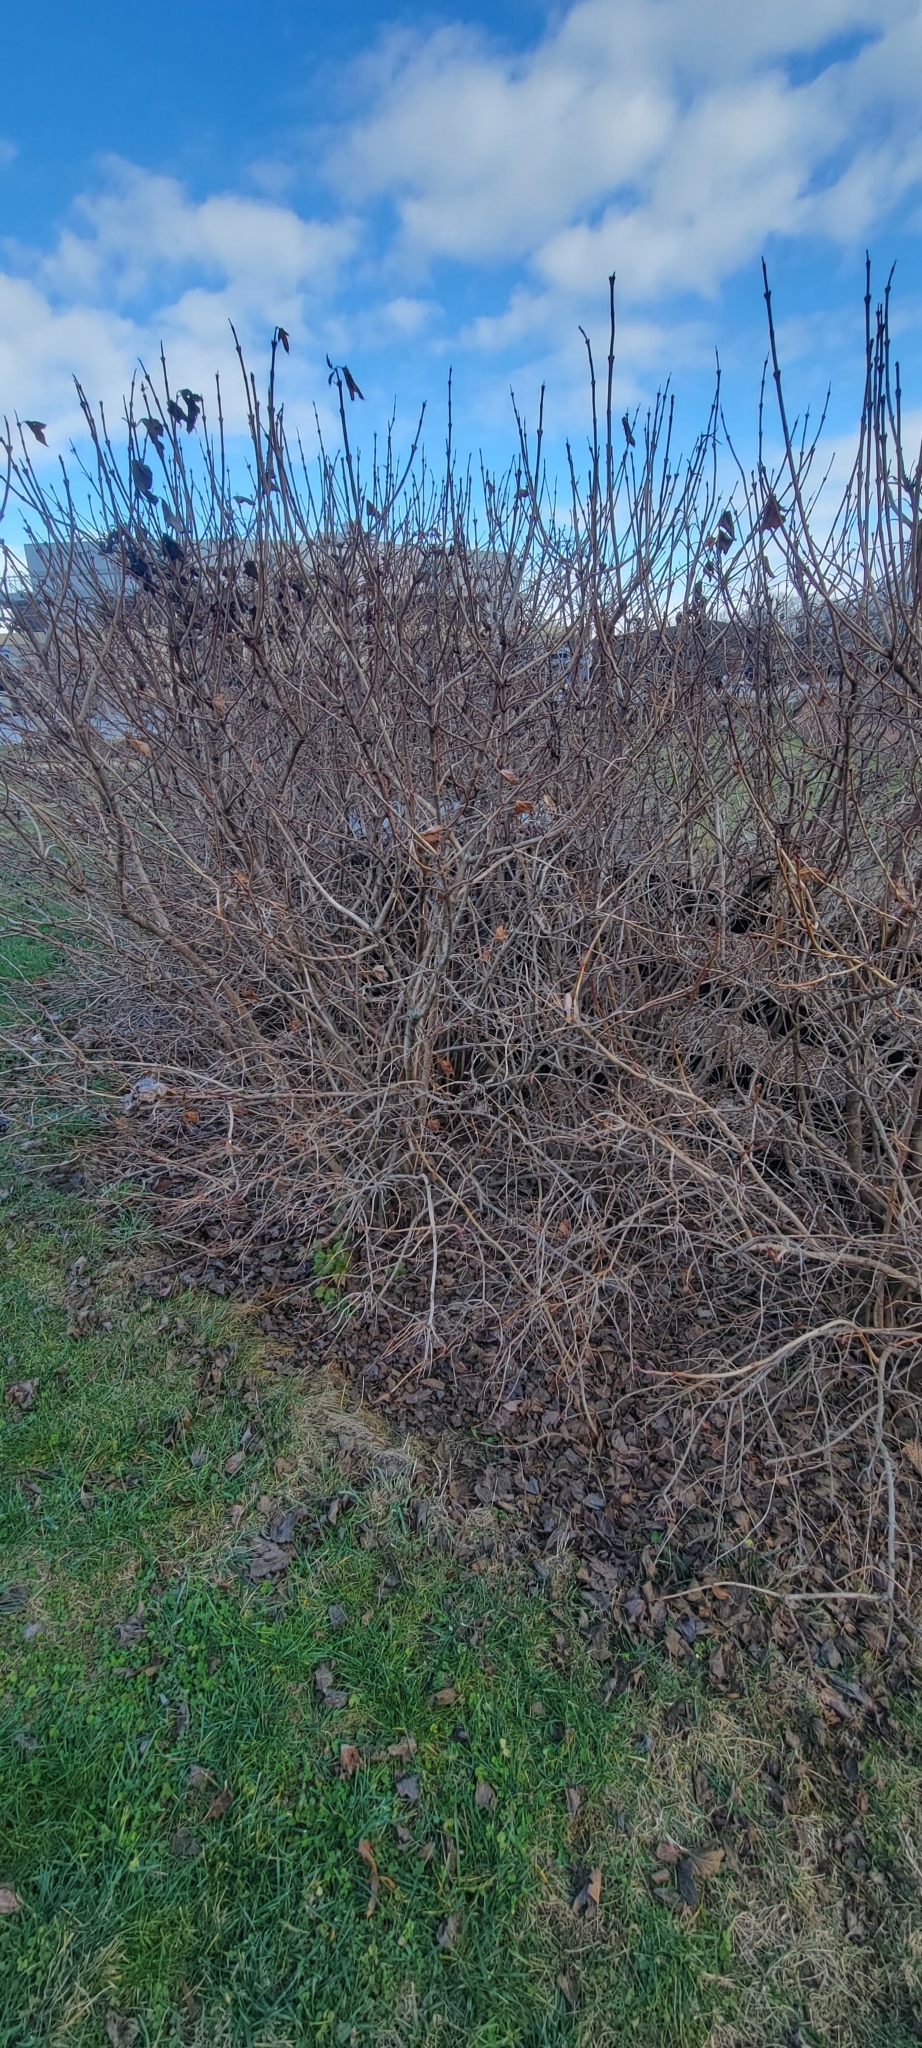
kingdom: Plantae
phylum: Tracheophyta
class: Magnoliopsida
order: Dipsacales
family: Viburnaceae
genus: Viburnum
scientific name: Viburnum opulus
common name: Guelder-rose
